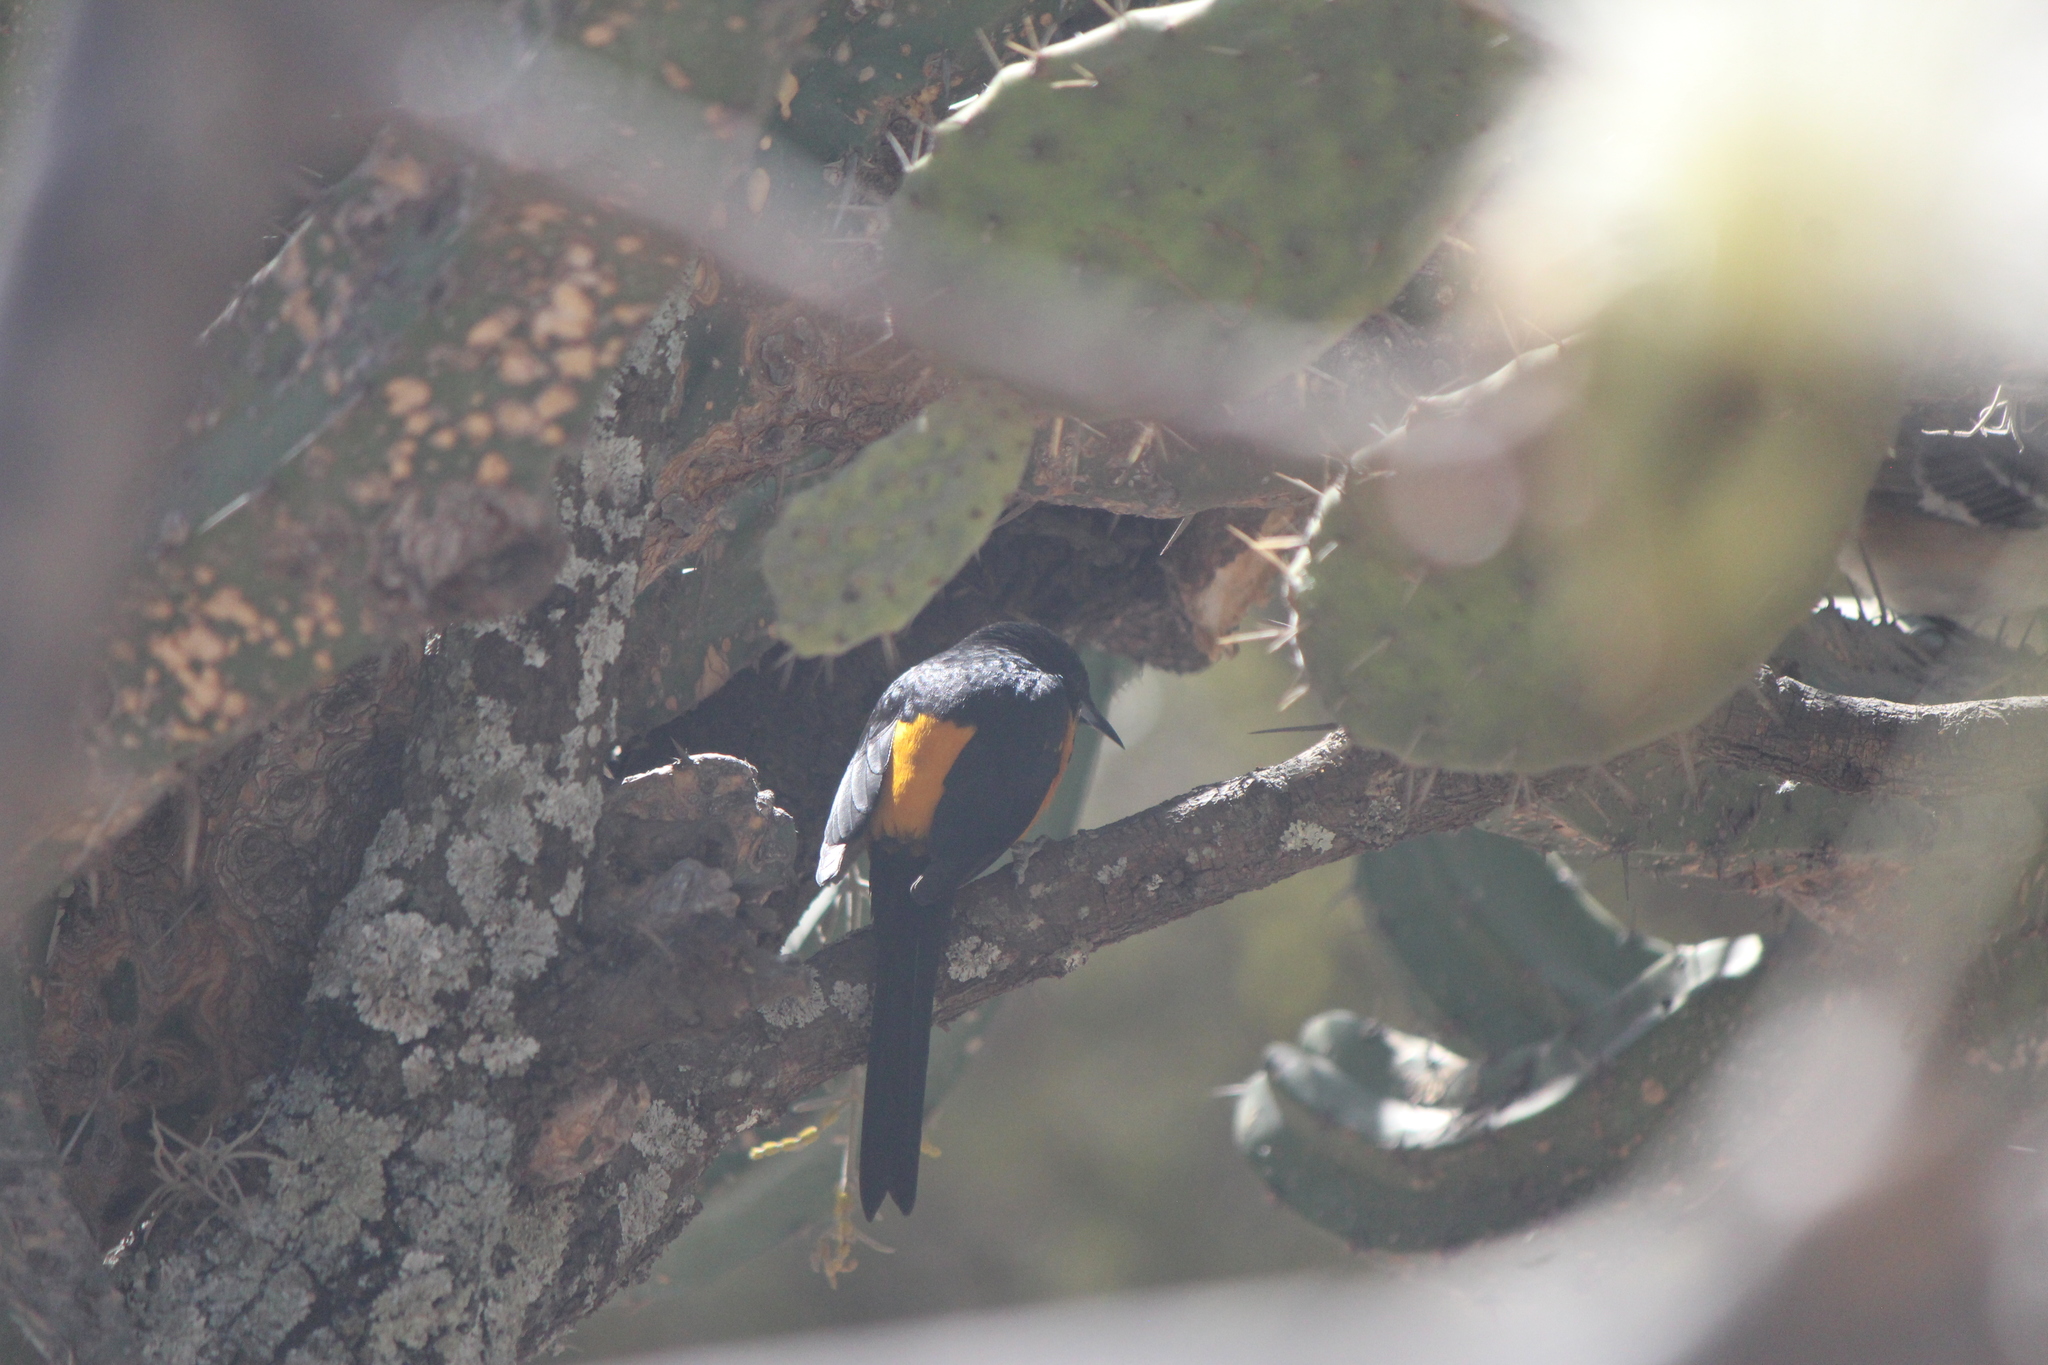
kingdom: Animalia
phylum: Chordata
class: Aves
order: Passeriformes
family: Icteridae
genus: Icterus
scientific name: Icterus wagleri
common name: Black-vented oriole
